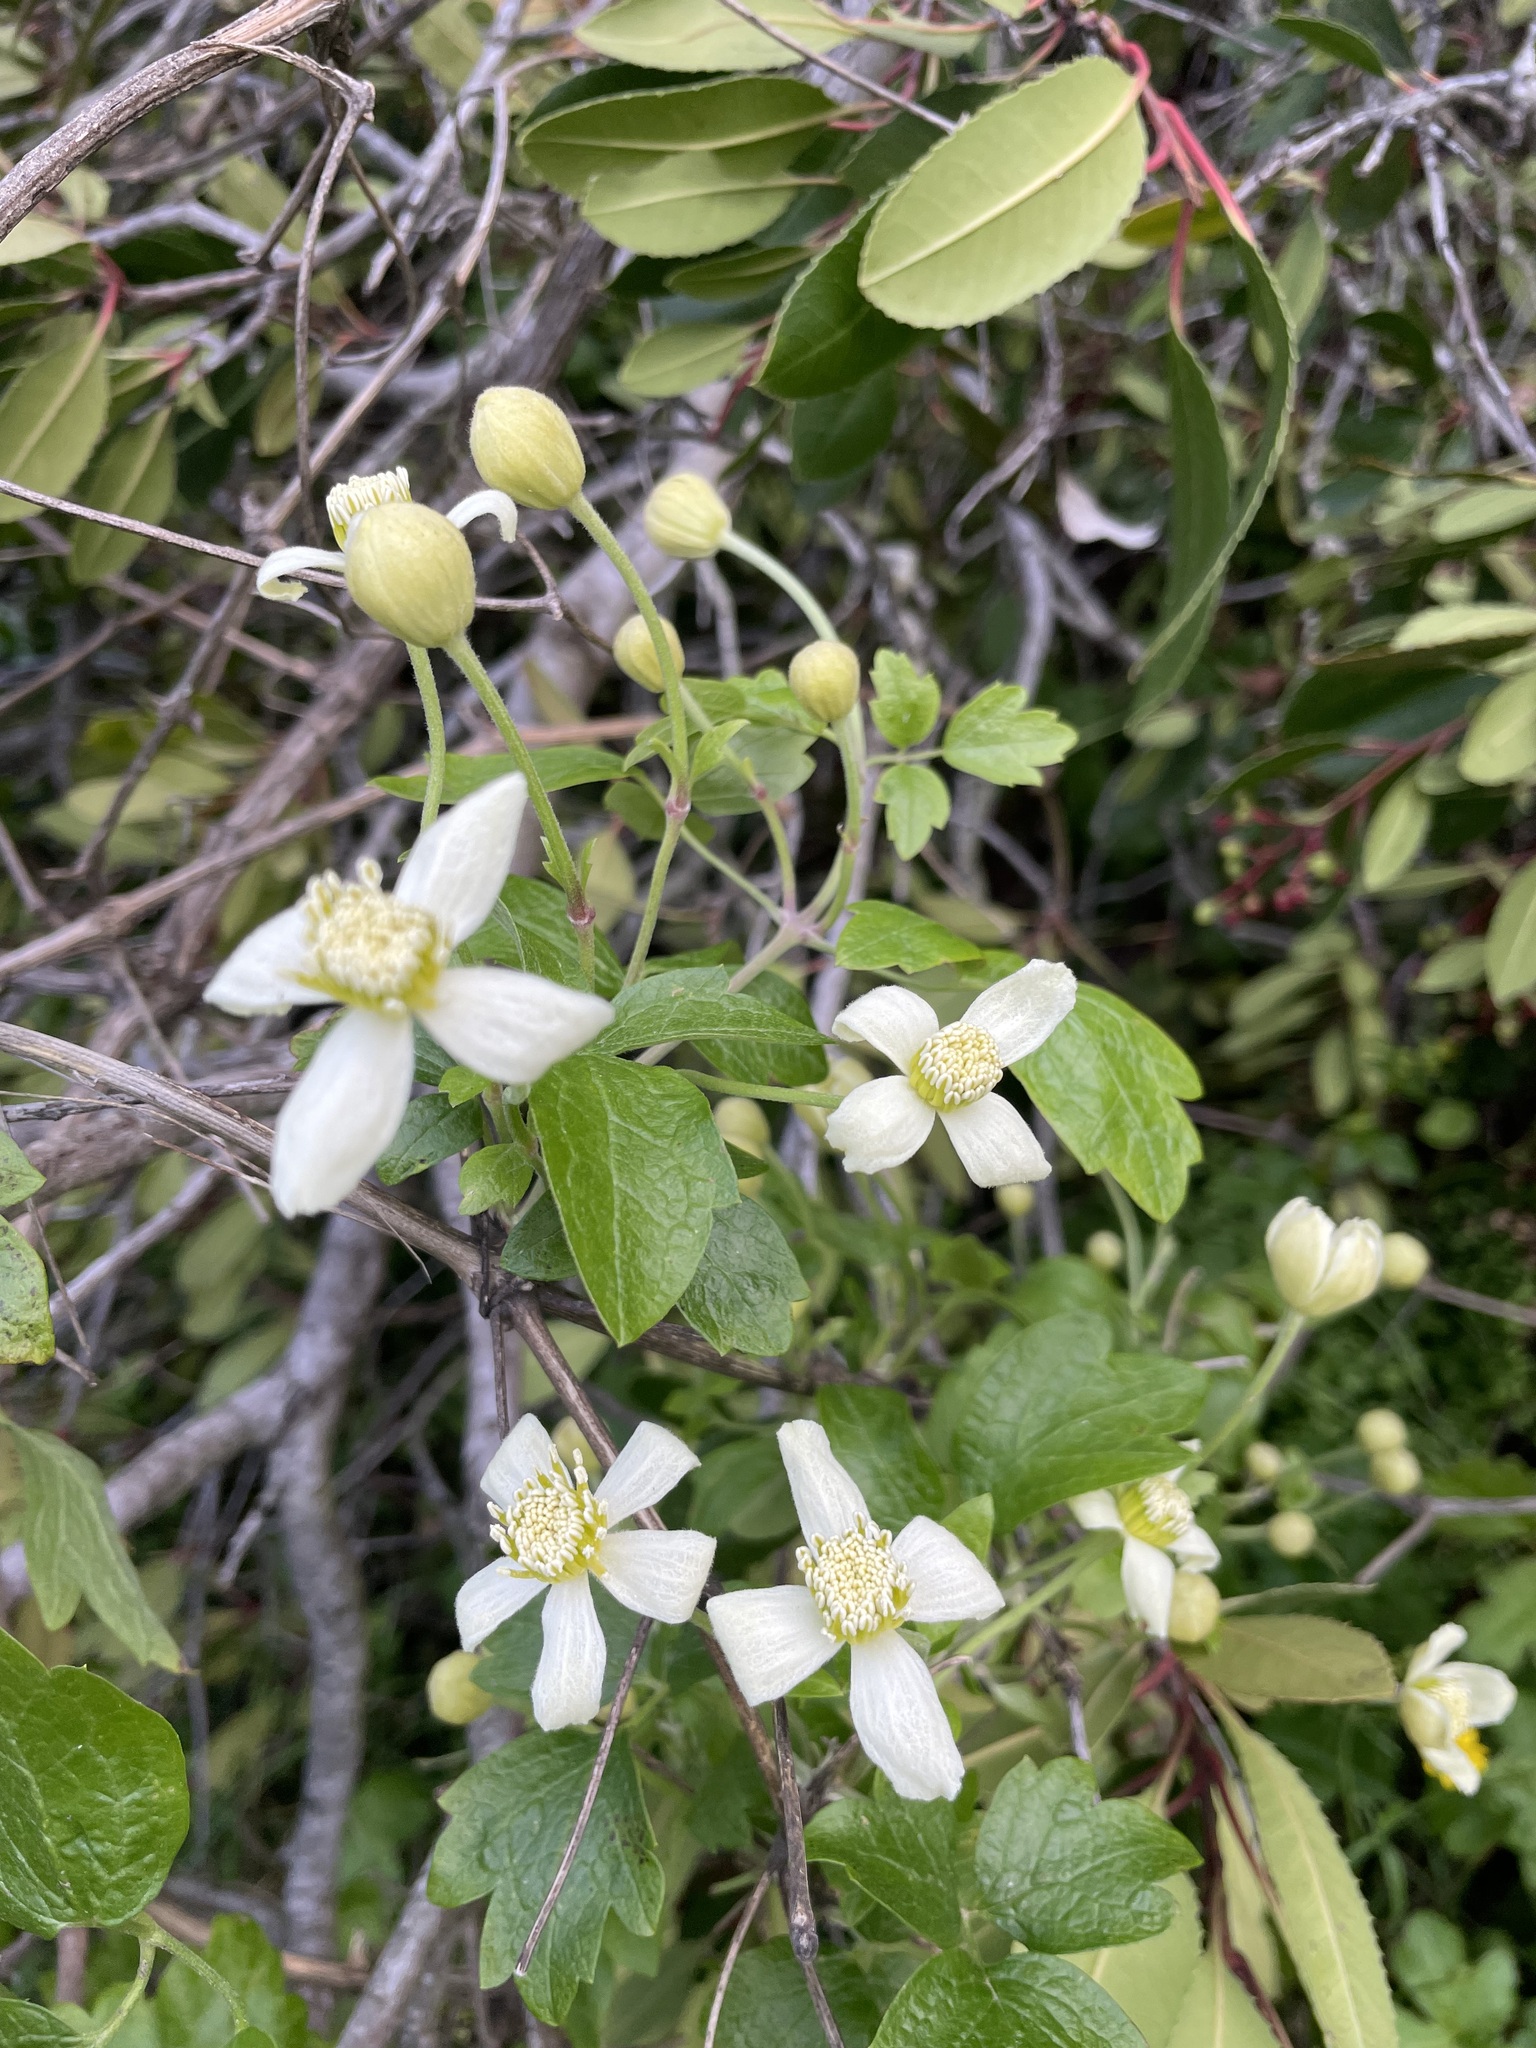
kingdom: Plantae
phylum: Tracheophyta
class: Magnoliopsida
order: Ranunculales
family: Ranunculaceae
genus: Clematis
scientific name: Clematis lasiantha
